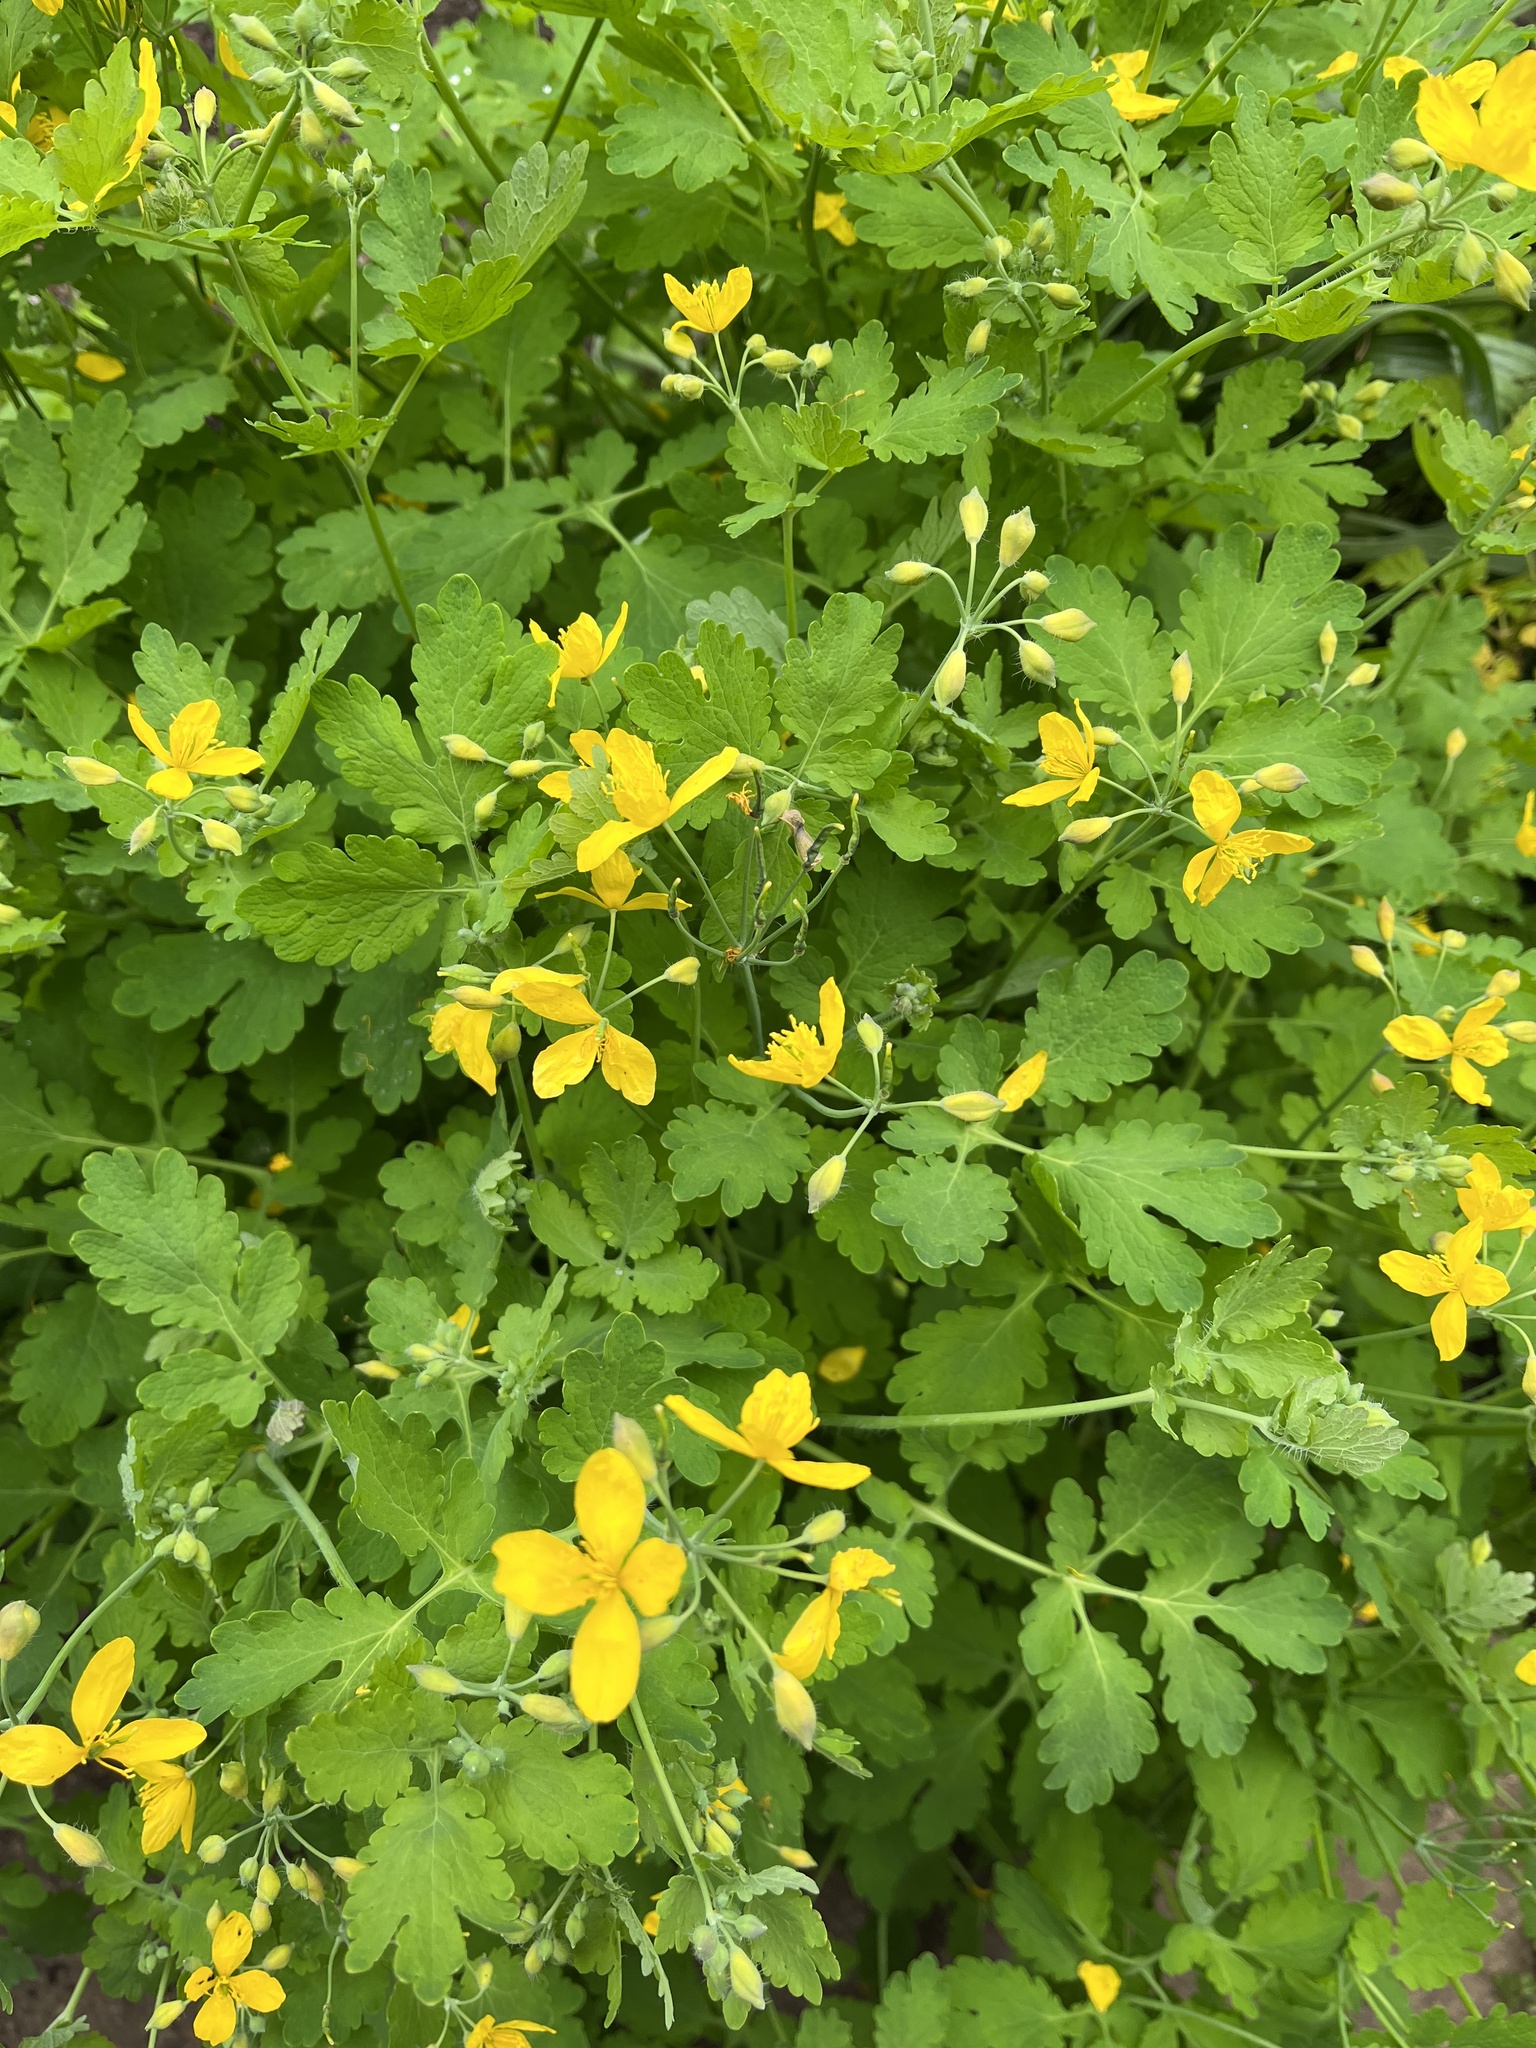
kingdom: Plantae
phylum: Tracheophyta
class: Magnoliopsida
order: Ranunculales
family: Papaveraceae
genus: Chelidonium
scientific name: Chelidonium majus
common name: Greater celandine
